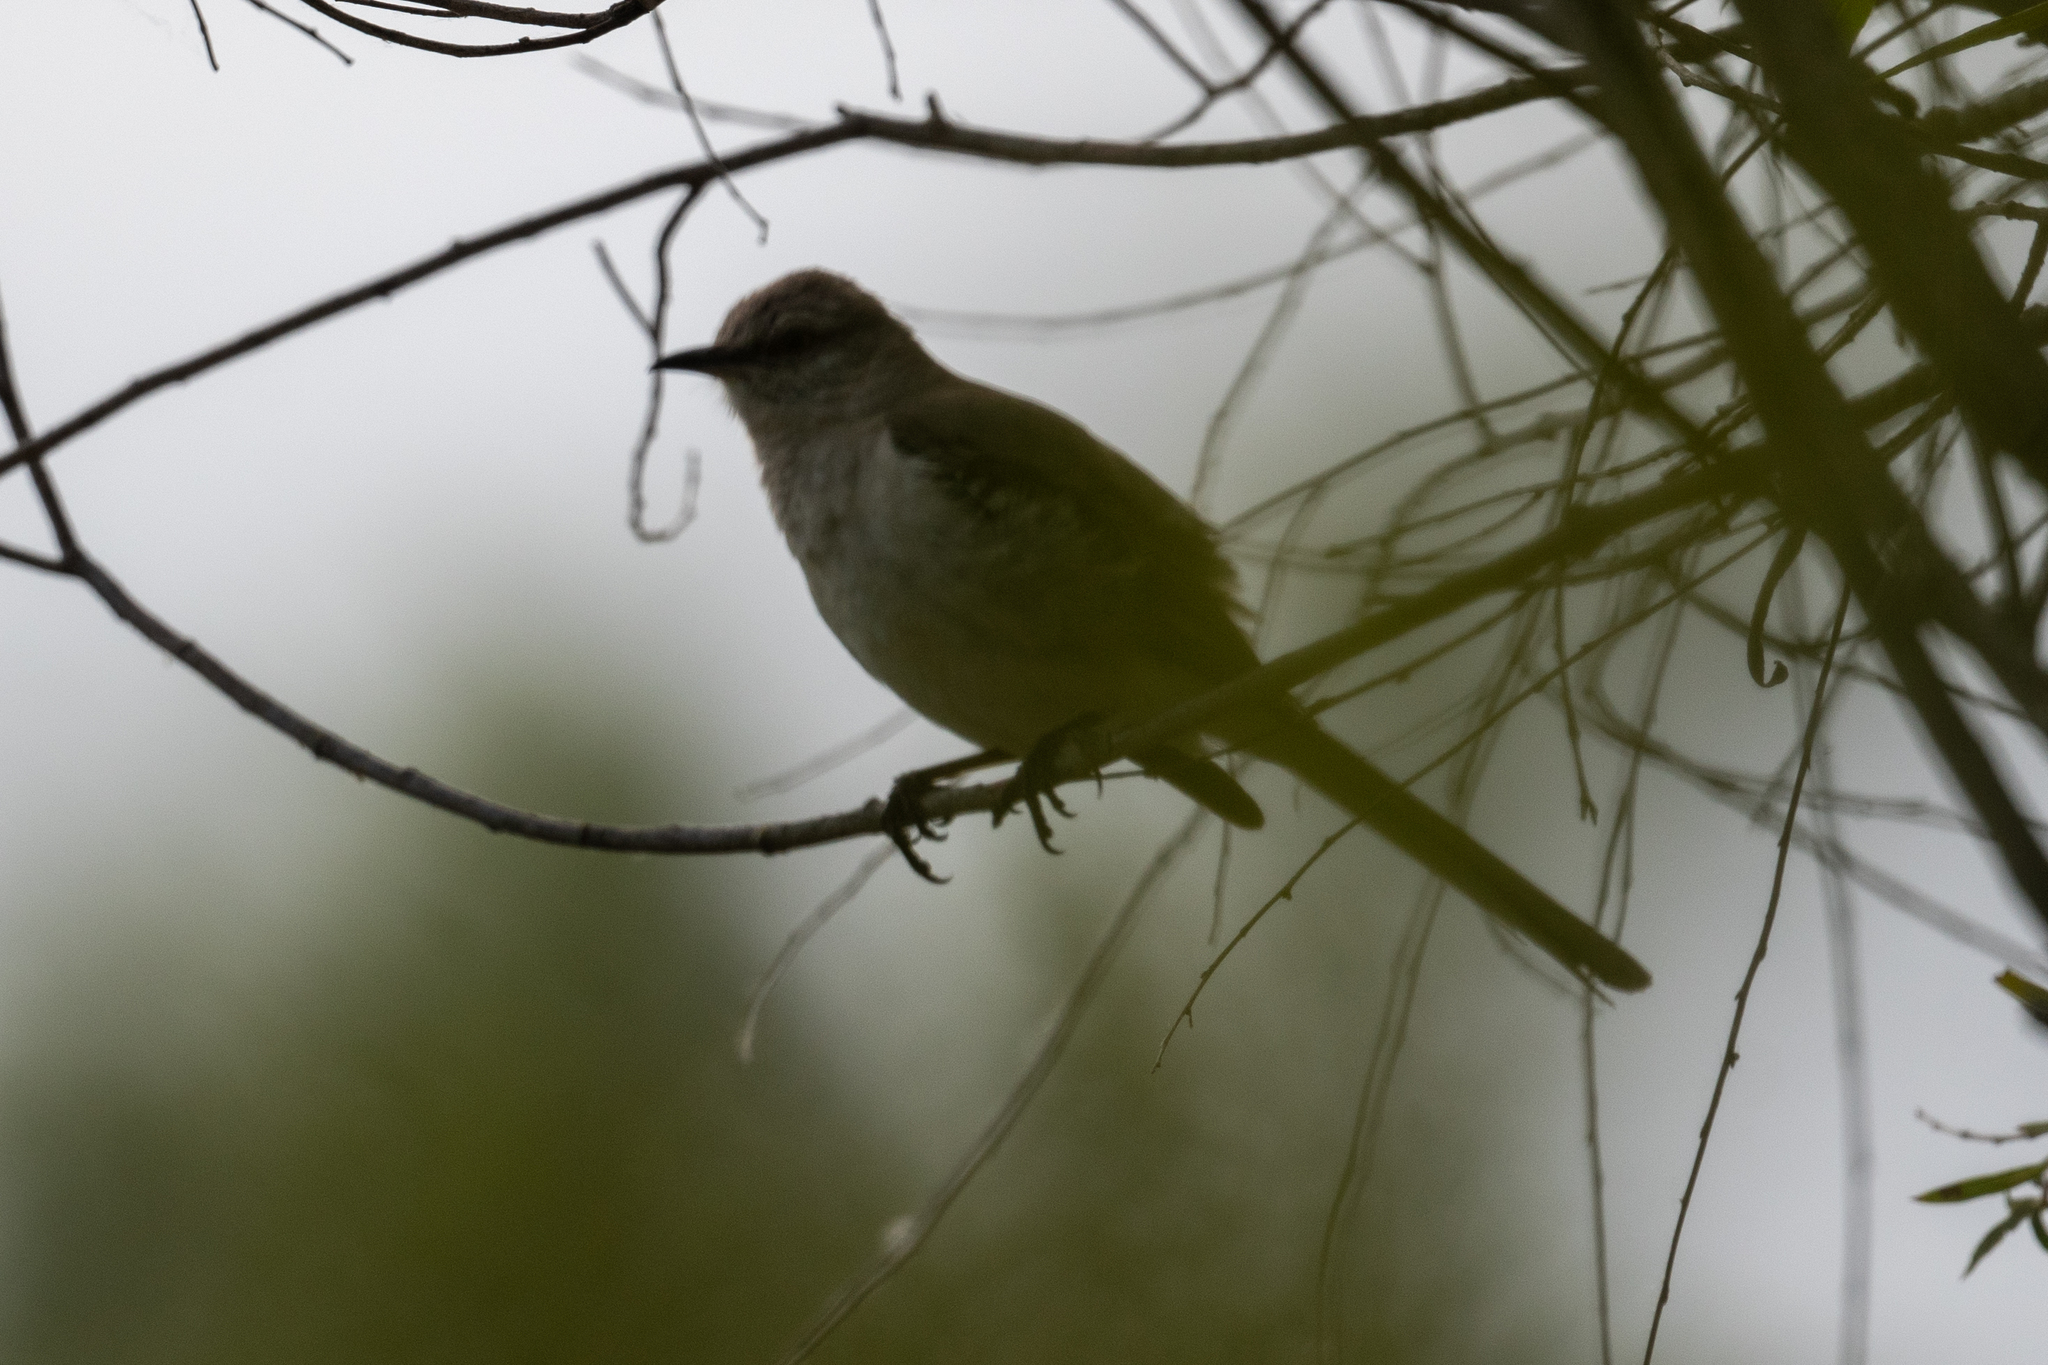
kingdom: Animalia
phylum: Chordata
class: Aves
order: Passeriformes
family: Mimidae
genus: Mimus
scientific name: Mimus polyglottos
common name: Northern mockingbird
